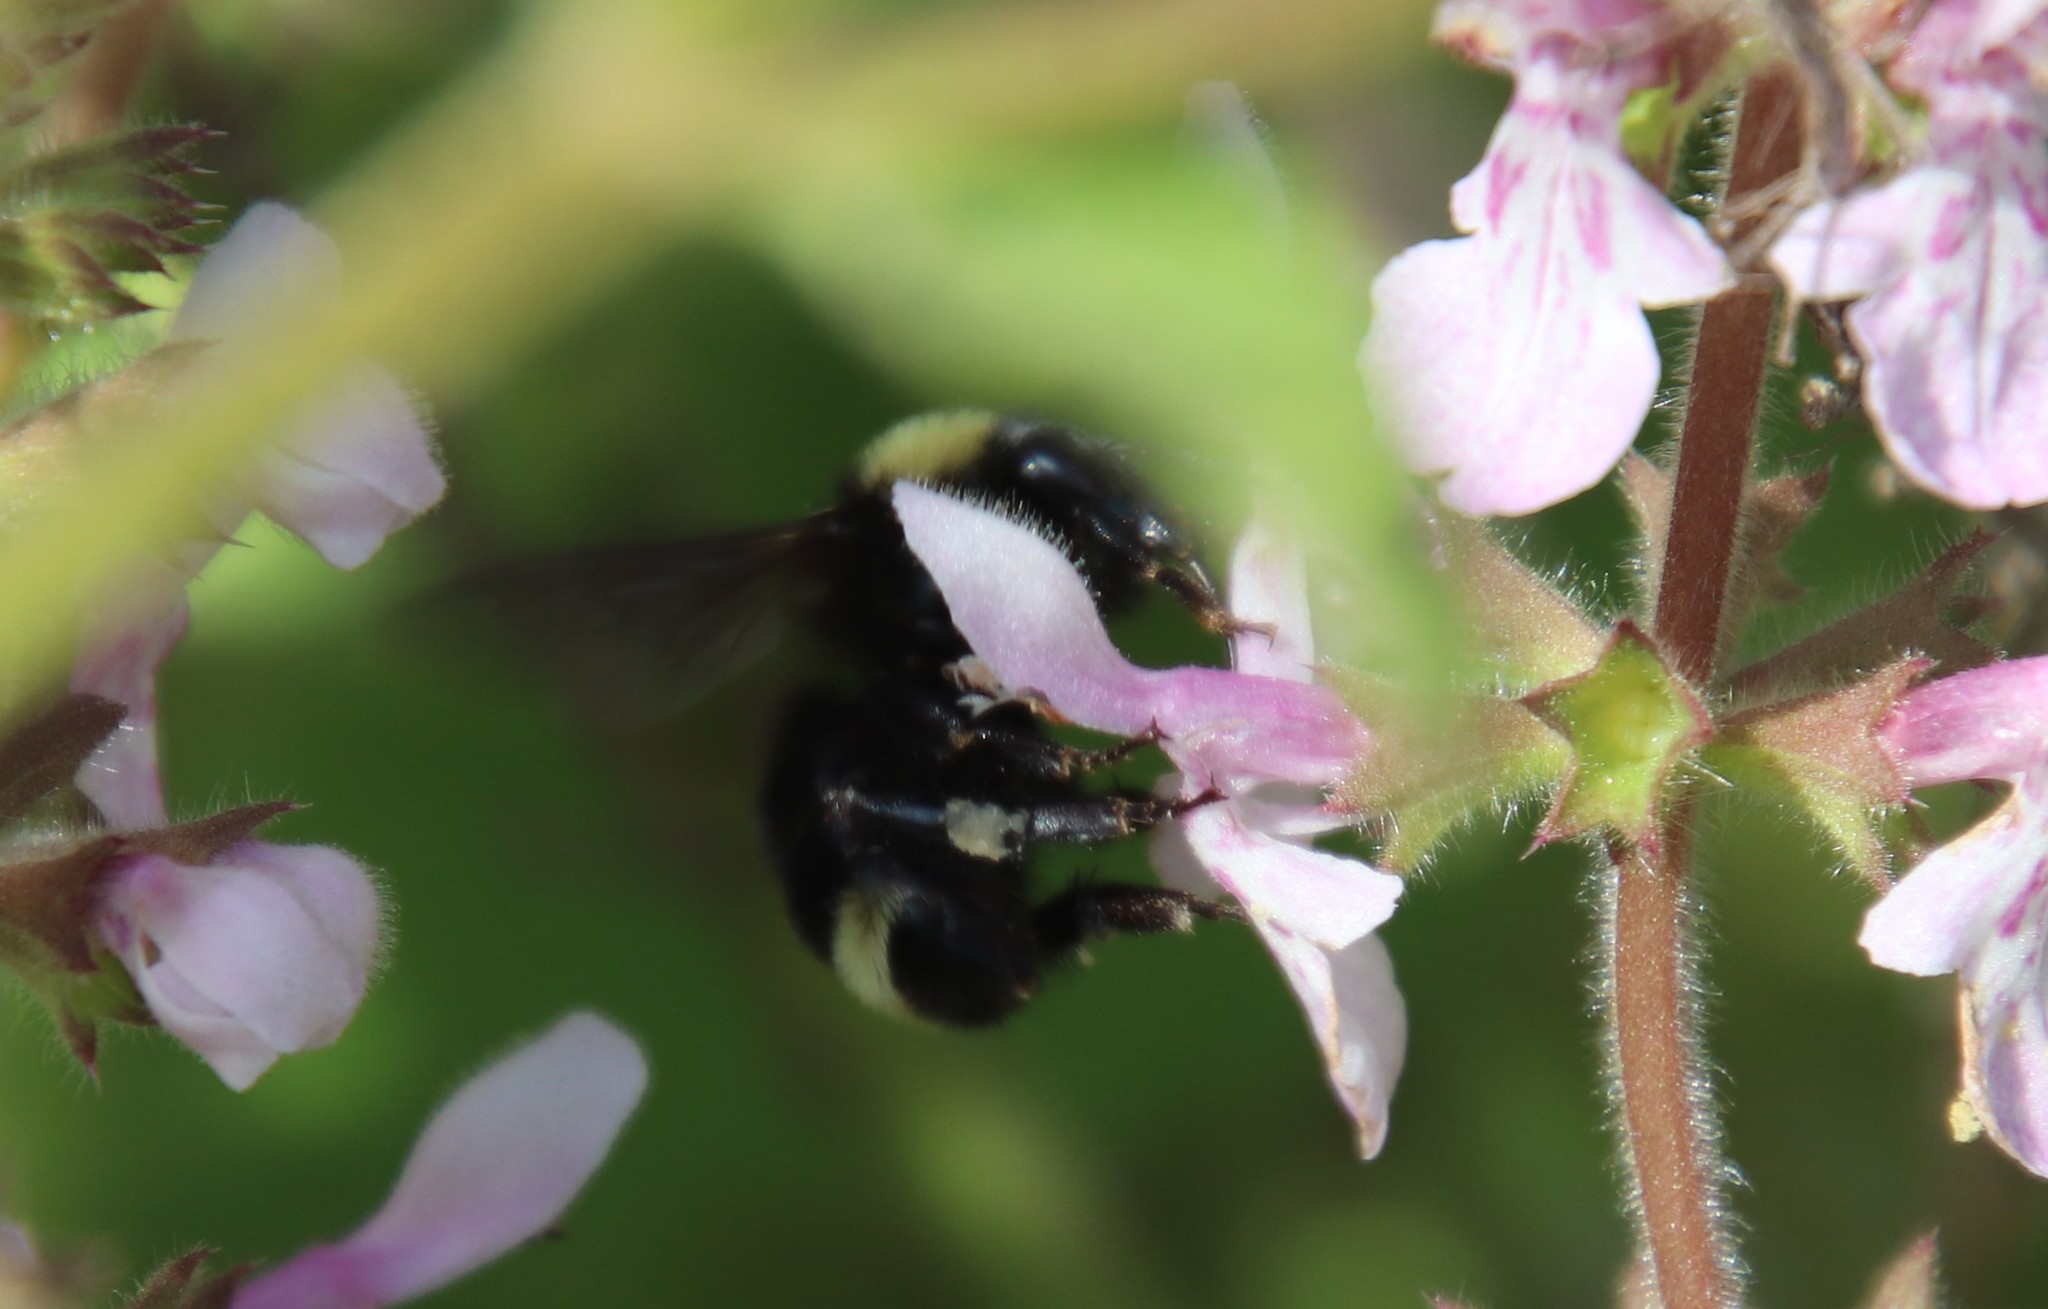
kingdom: Animalia
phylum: Arthropoda
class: Insecta
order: Hymenoptera
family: Apidae
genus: Bombus
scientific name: Bombus vosnesenskii
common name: Vosnesensky bumble bee
